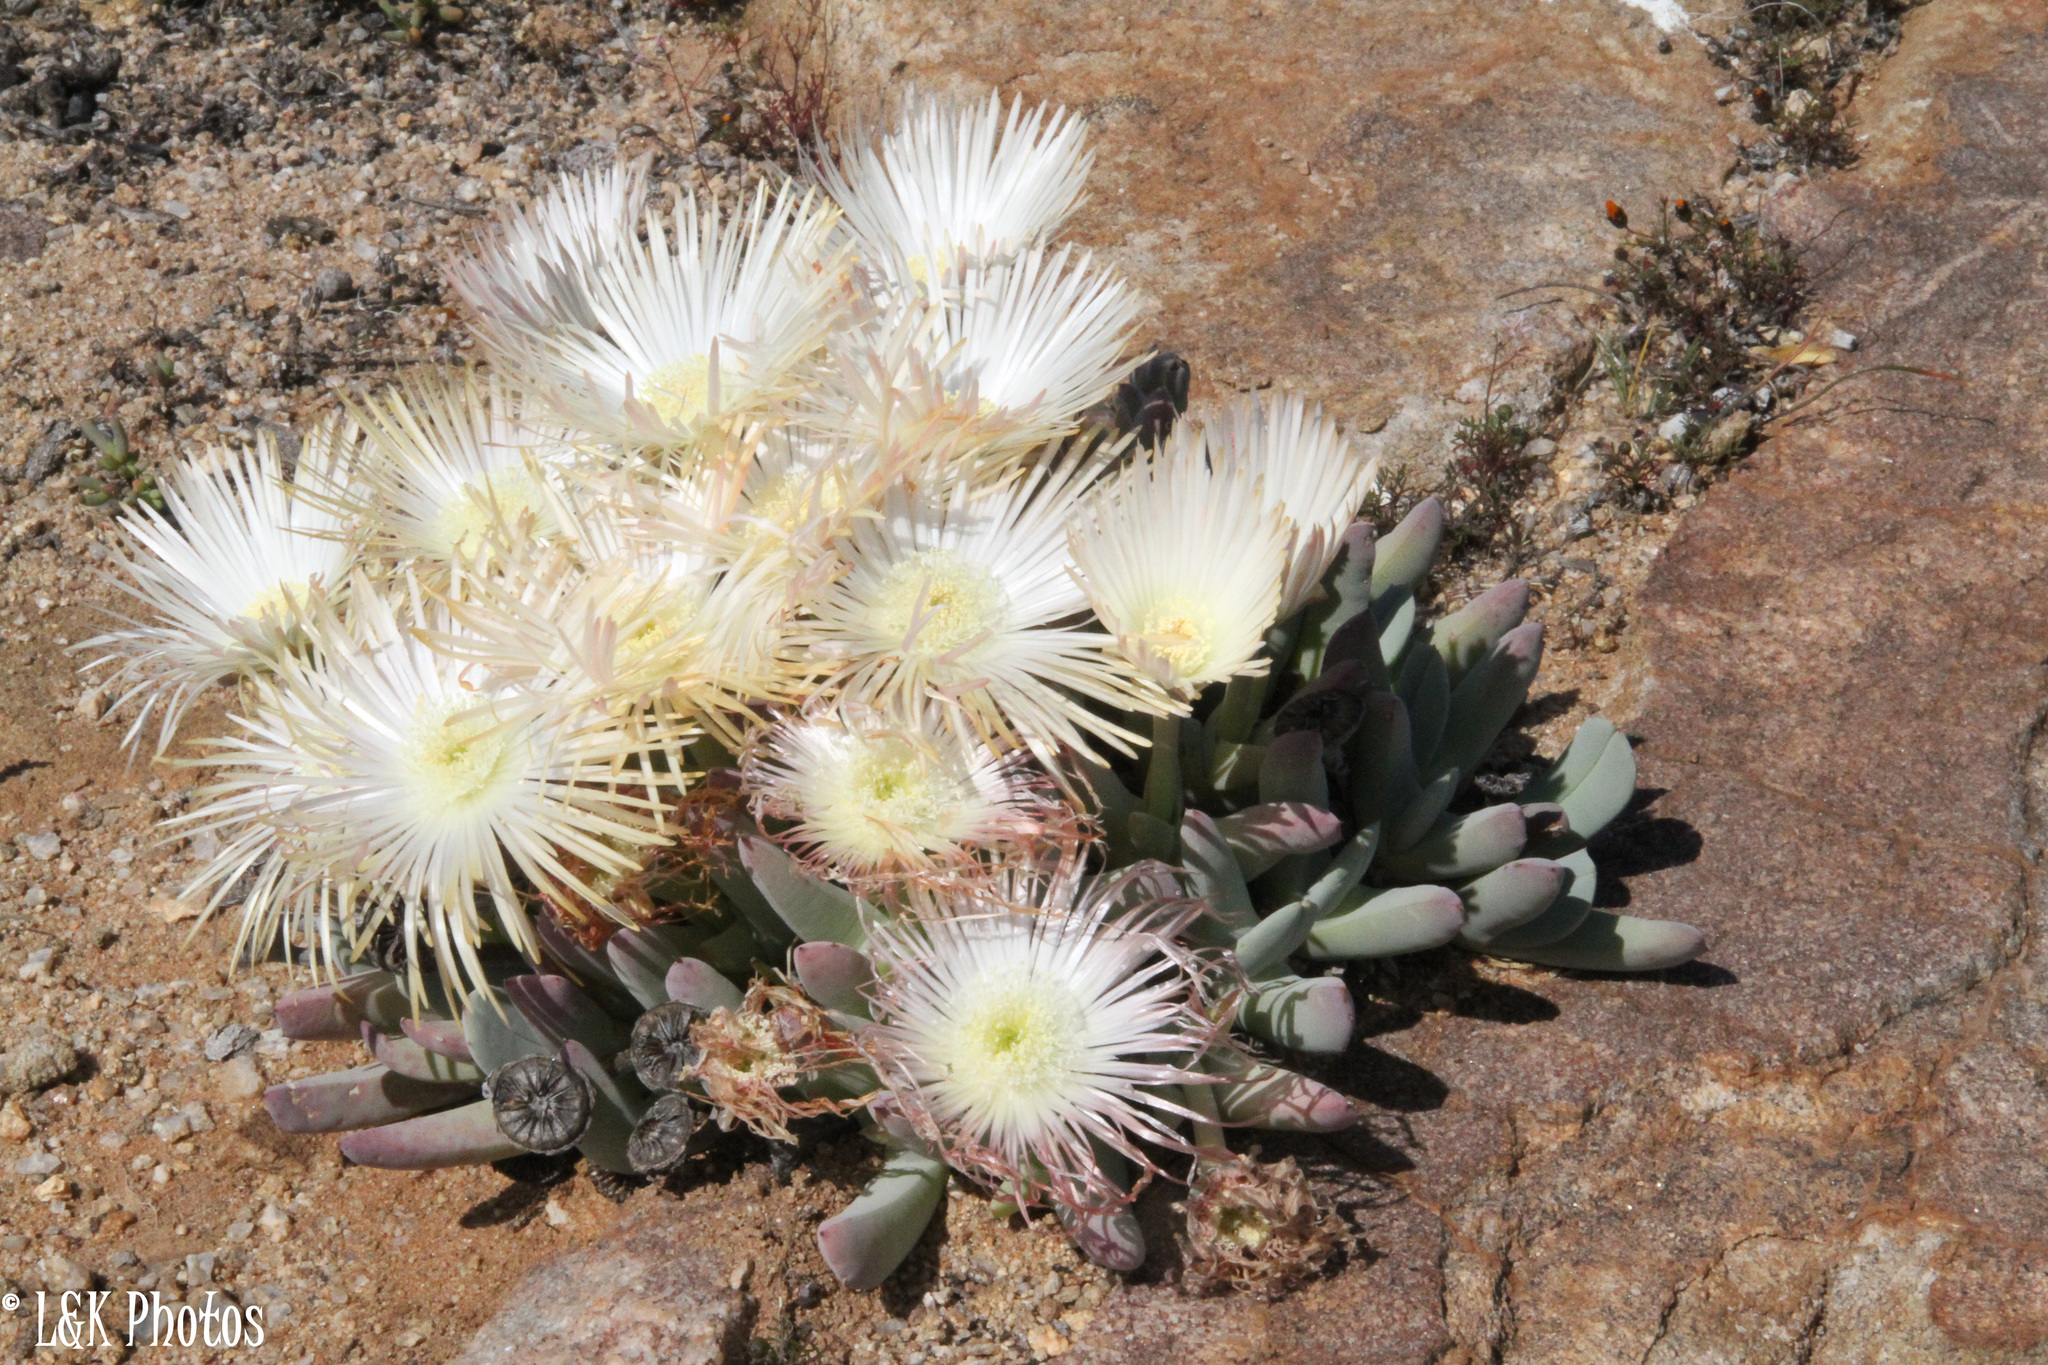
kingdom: Plantae
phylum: Tracheophyta
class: Magnoliopsida
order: Caryophyllales
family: Aizoaceae
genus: Cheiridopsis
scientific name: Cheiridopsis denticulata
